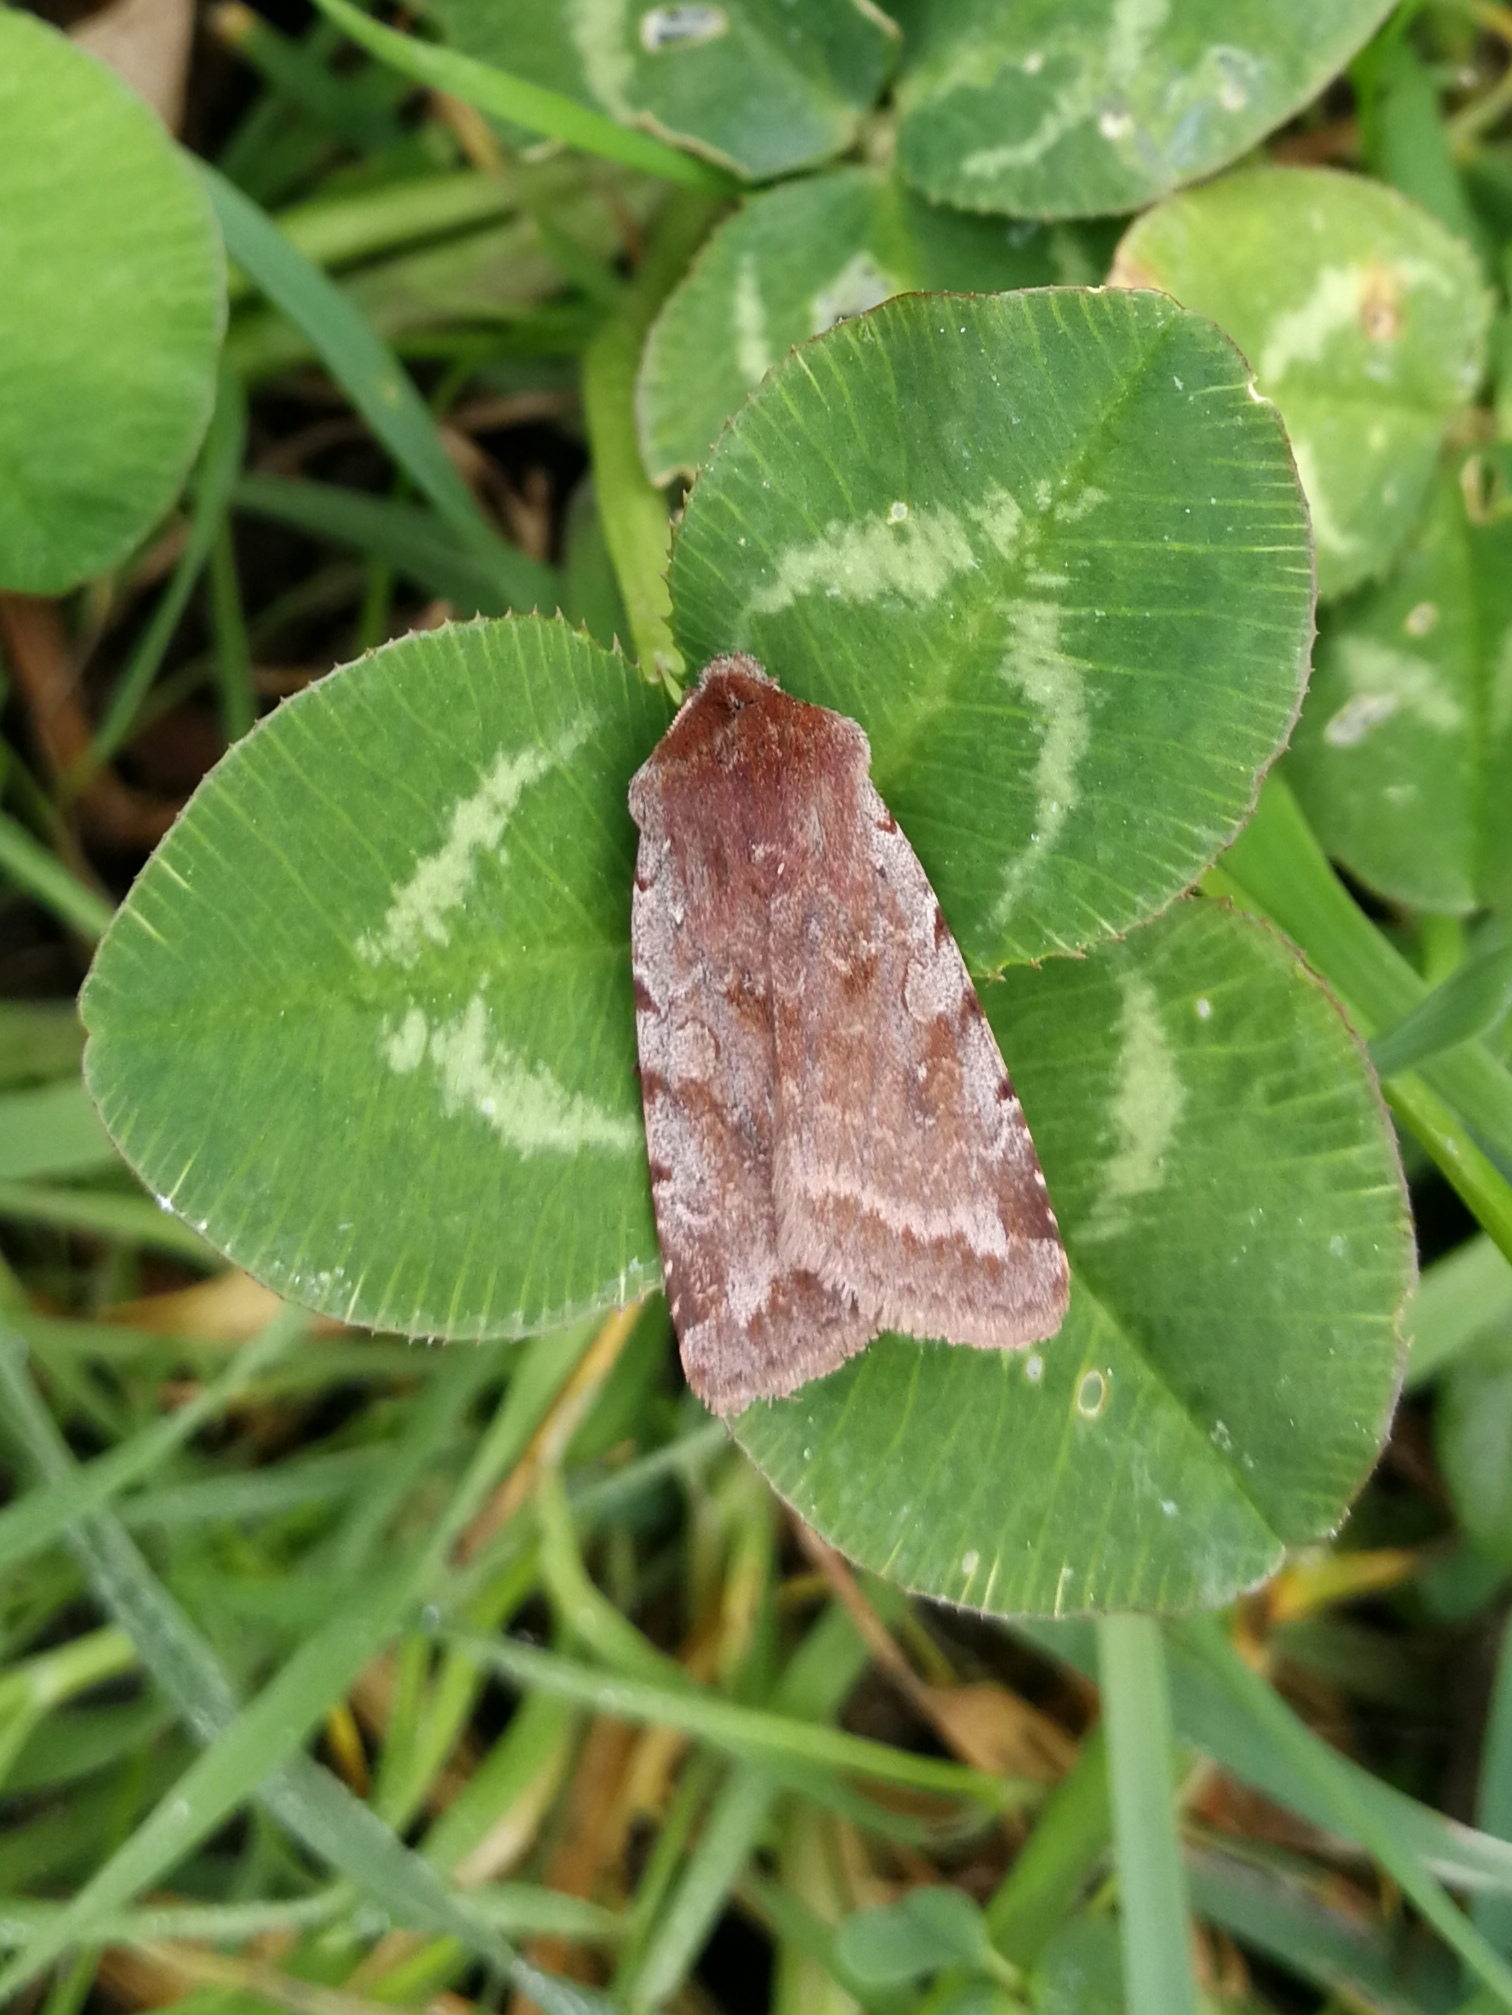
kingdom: Animalia
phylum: Arthropoda
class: Insecta
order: Lepidoptera
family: Noctuidae
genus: Cerastis
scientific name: Cerastis rubricosa
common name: Red chestnut
